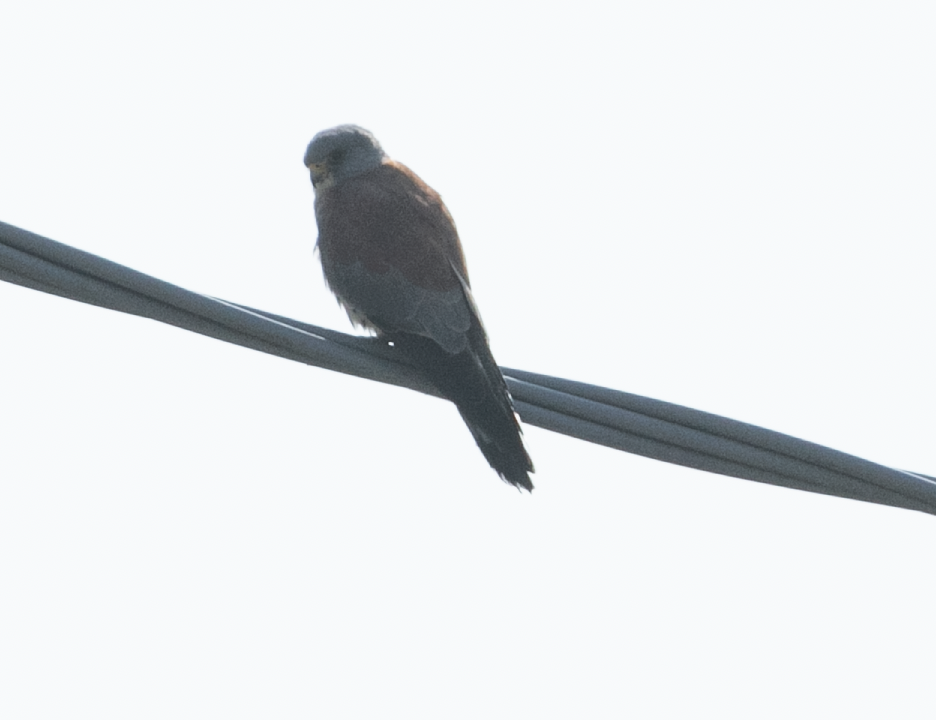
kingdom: Animalia
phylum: Chordata
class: Aves
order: Falconiformes
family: Falconidae
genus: Falco
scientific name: Falco naumanni
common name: Lesser kestrel
